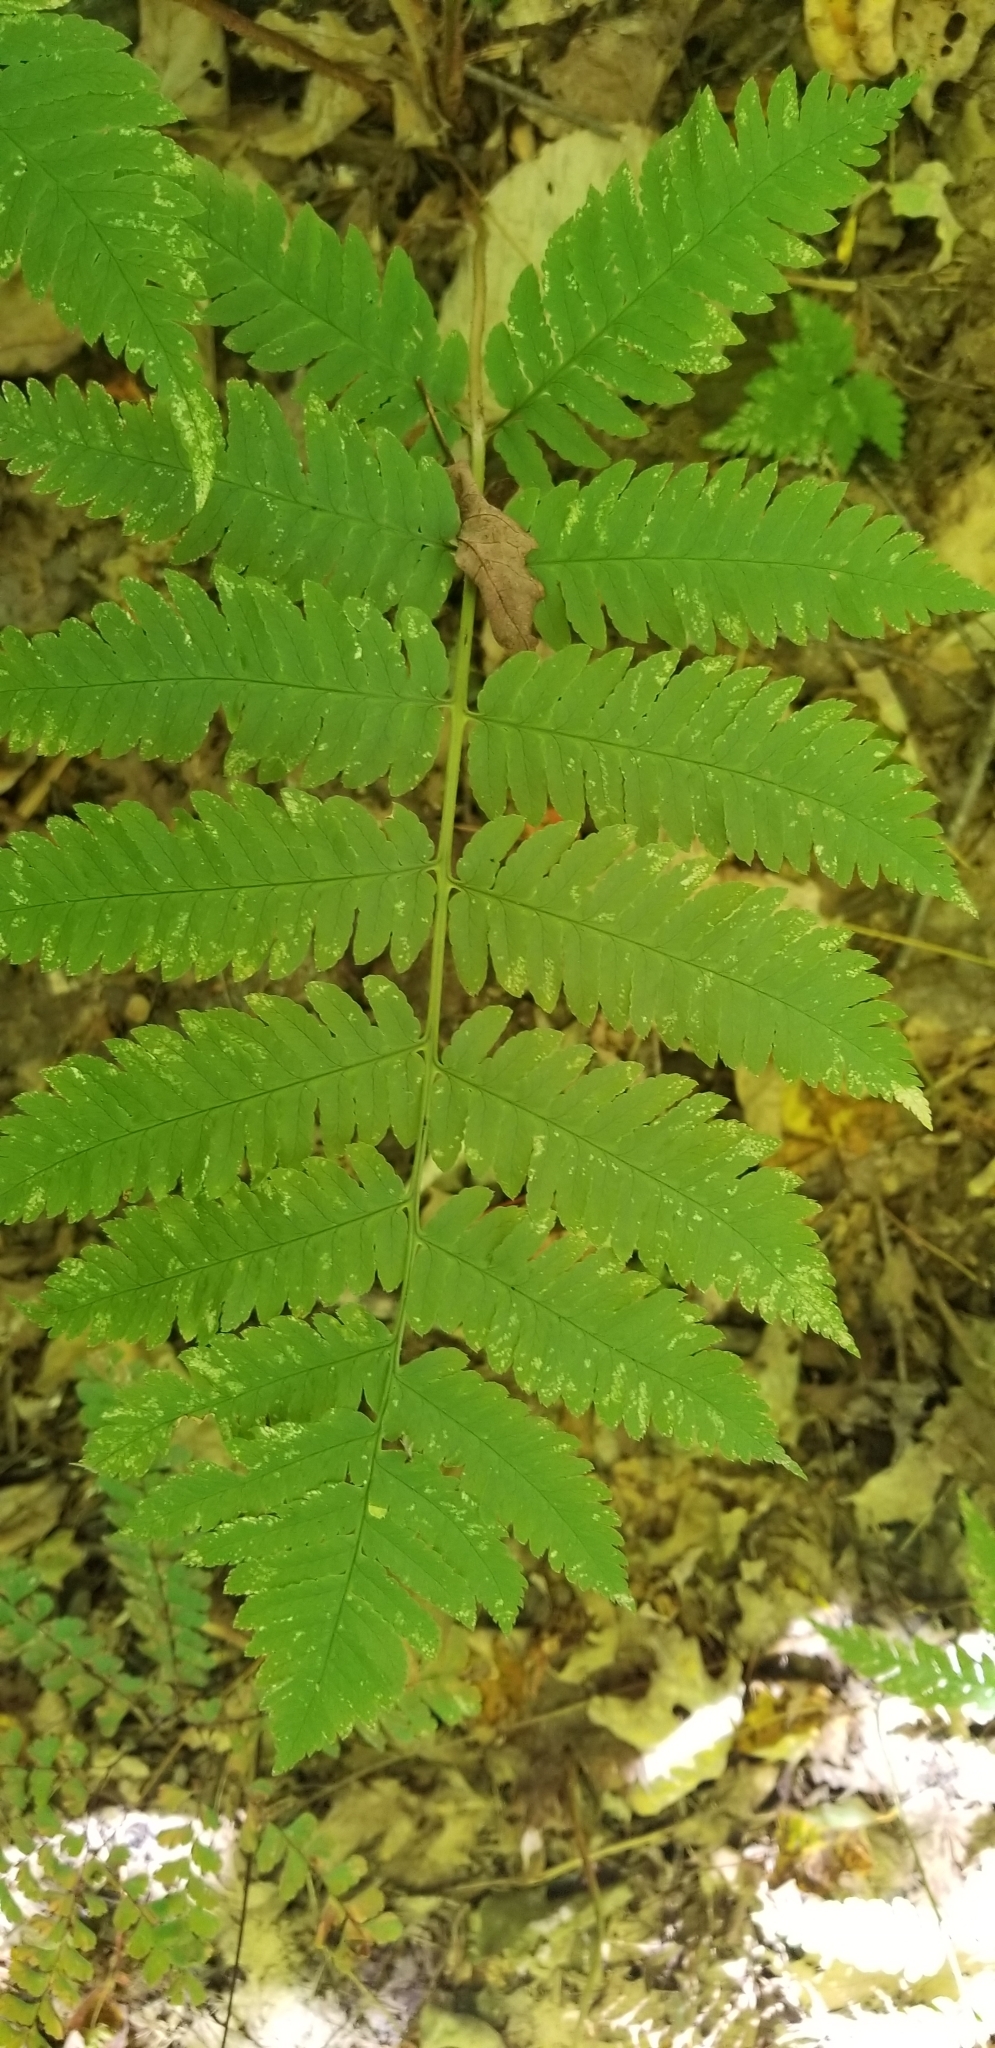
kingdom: Plantae
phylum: Tracheophyta
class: Polypodiopsida
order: Polypodiales
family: Dryopteridaceae
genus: Dryopteris
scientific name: Dryopteris goldieana
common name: Goldie's fern
